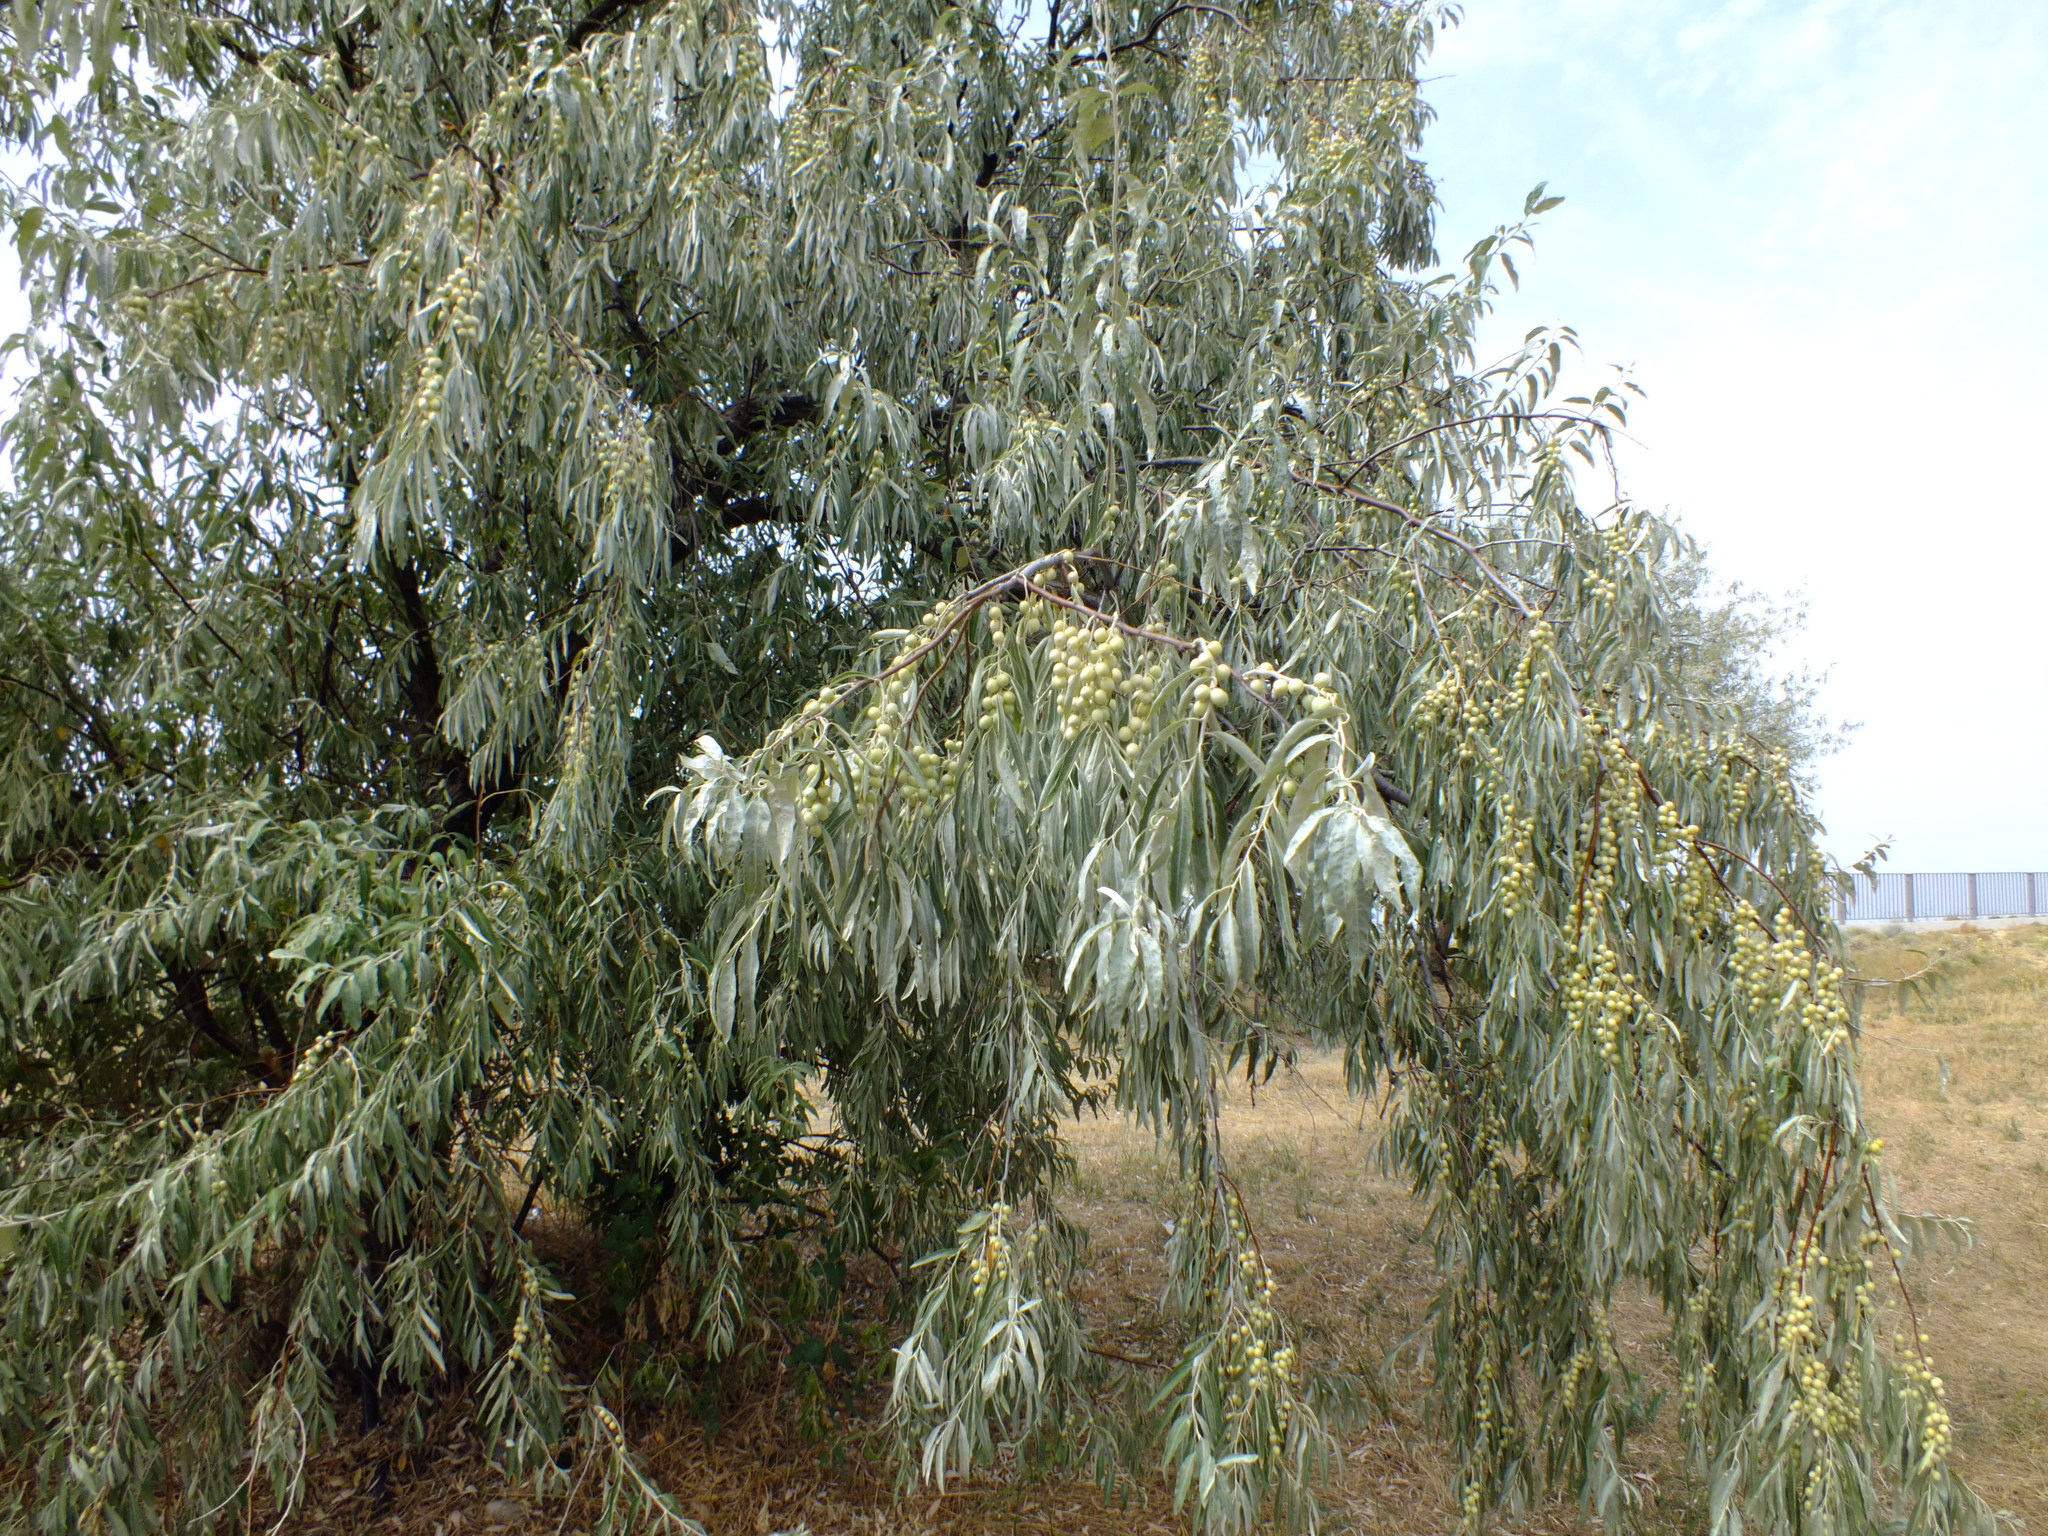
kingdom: Plantae
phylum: Tracheophyta
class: Magnoliopsida
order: Rosales
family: Elaeagnaceae
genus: Elaeagnus
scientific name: Elaeagnus angustifolia
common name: Russian olive
